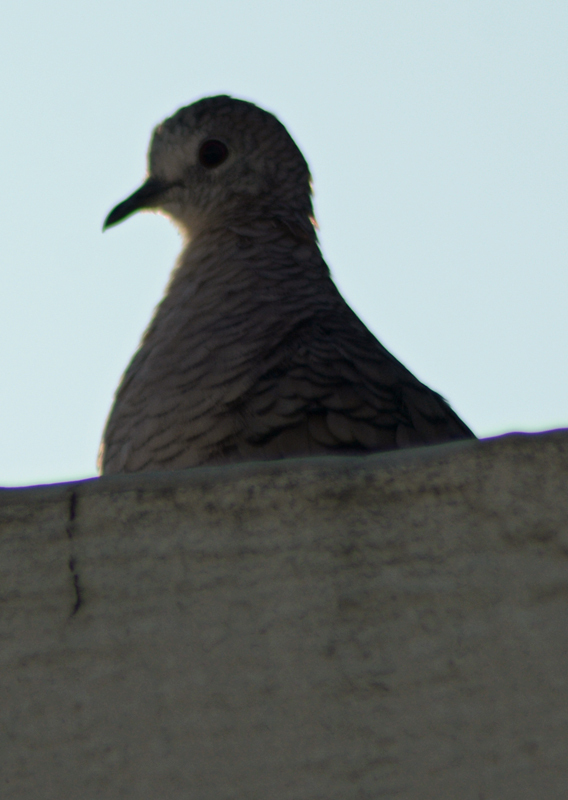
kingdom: Animalia
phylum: Chordata
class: Aves
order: Columbiformes
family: Columbidae
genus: Columbina
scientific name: Columbina inca
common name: Inca dove
